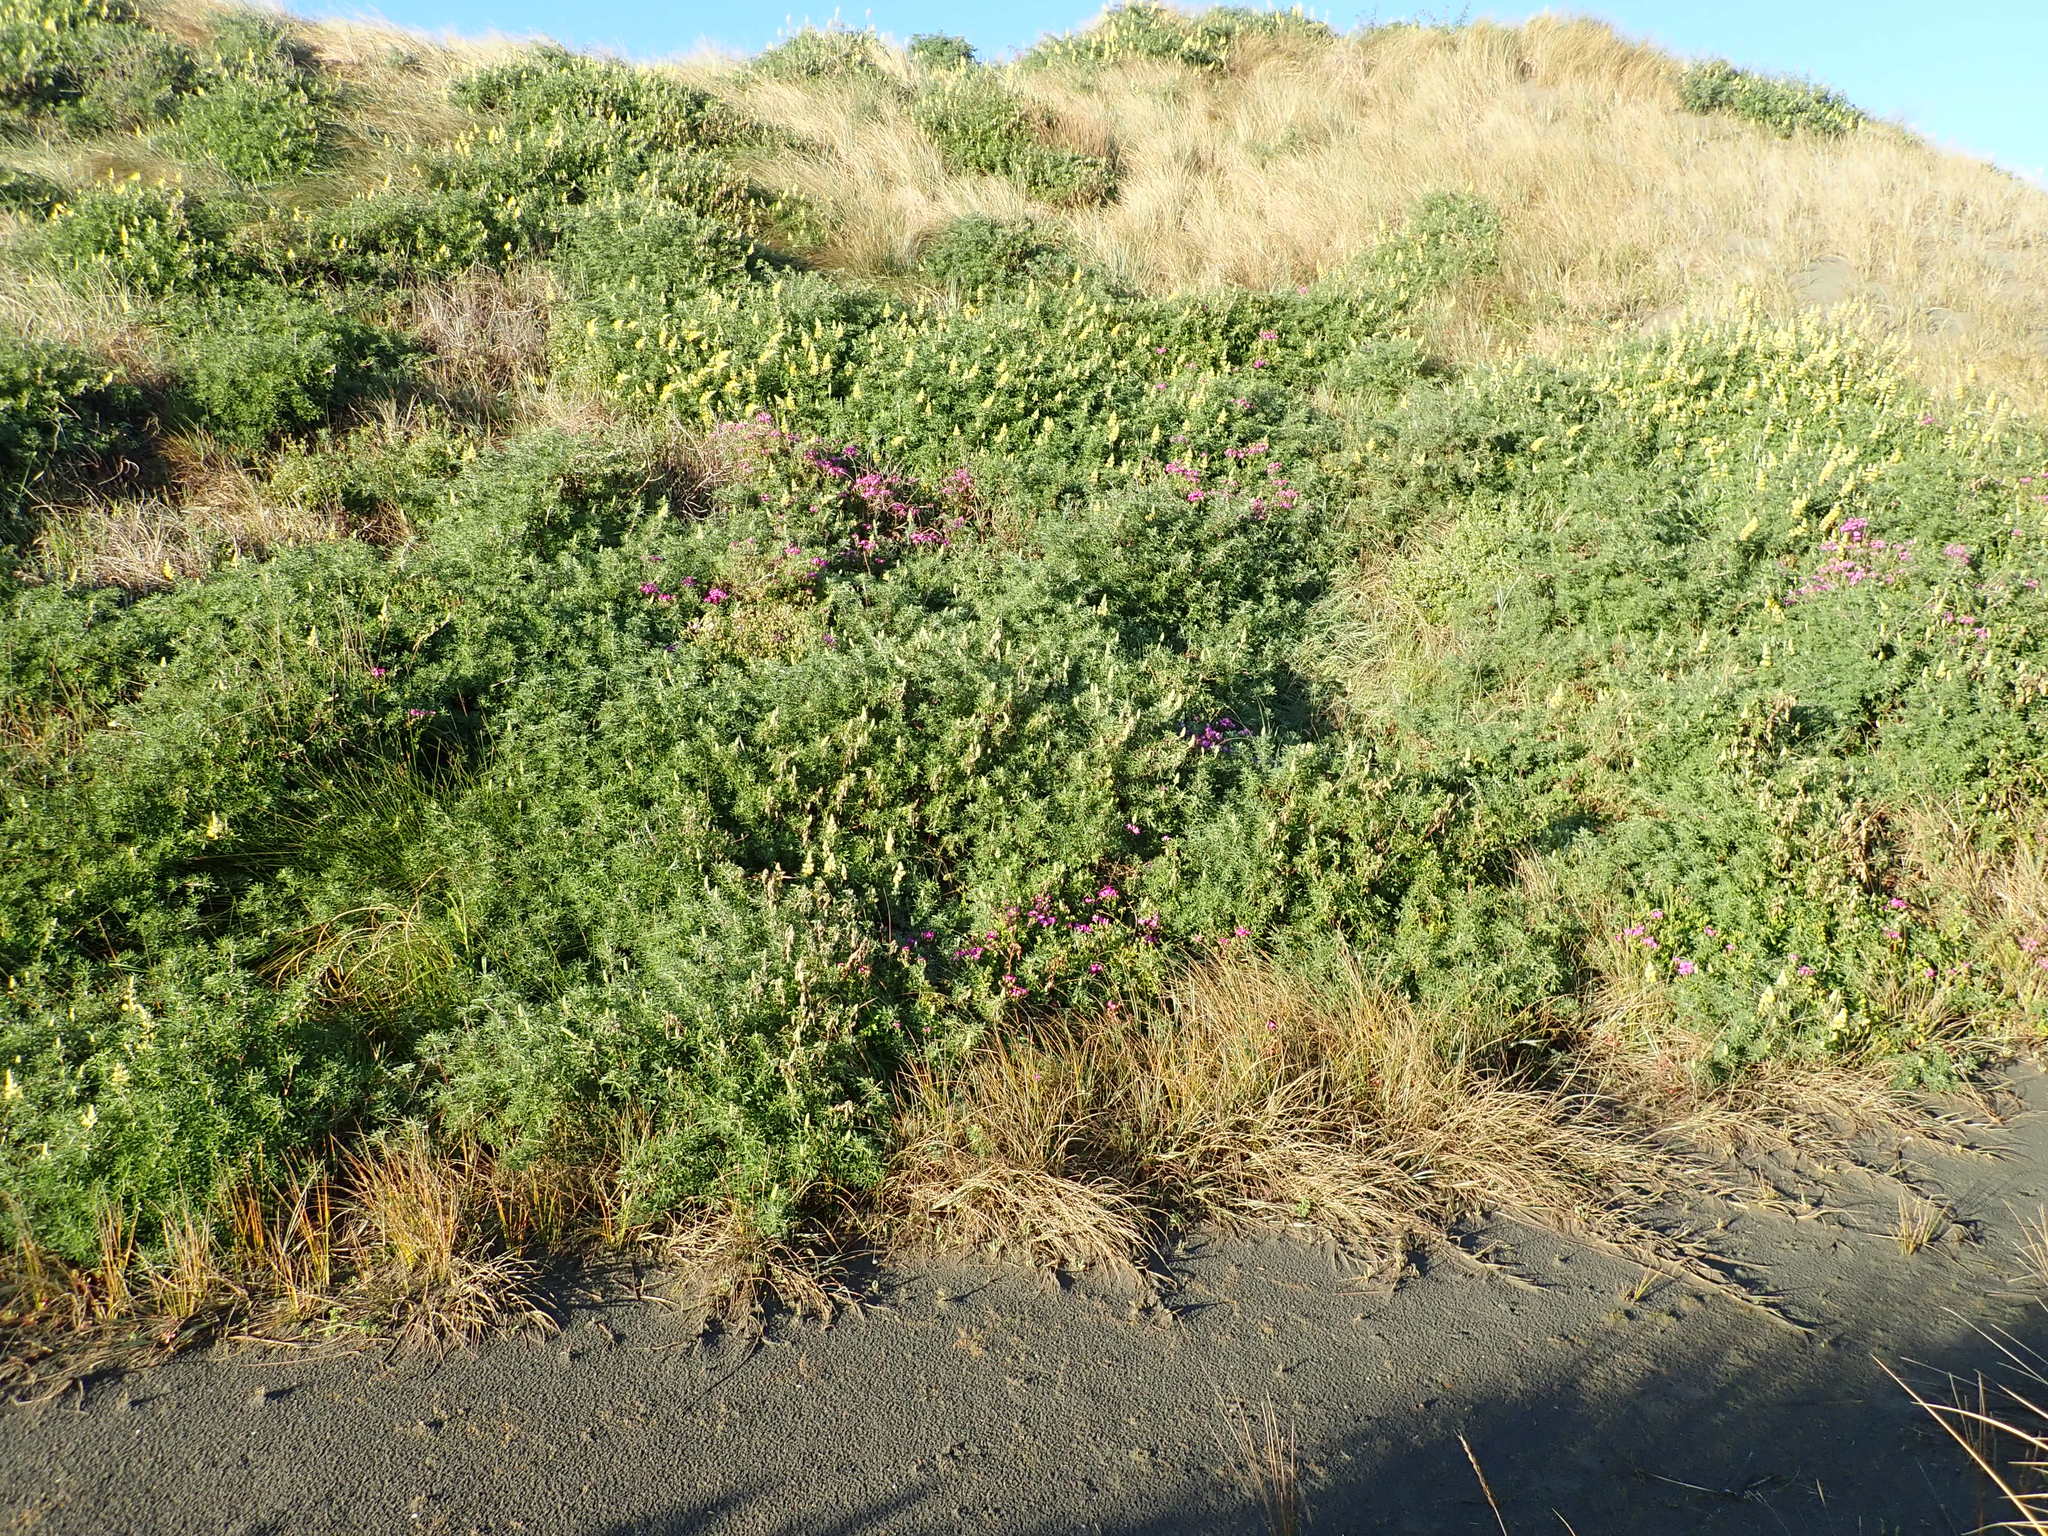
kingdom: Plantae
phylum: Tracheophyta
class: Magnoliopsida
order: Asterales
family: Asteraceae
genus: Senecio
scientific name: Senecio elegans
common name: Purple groundsel
